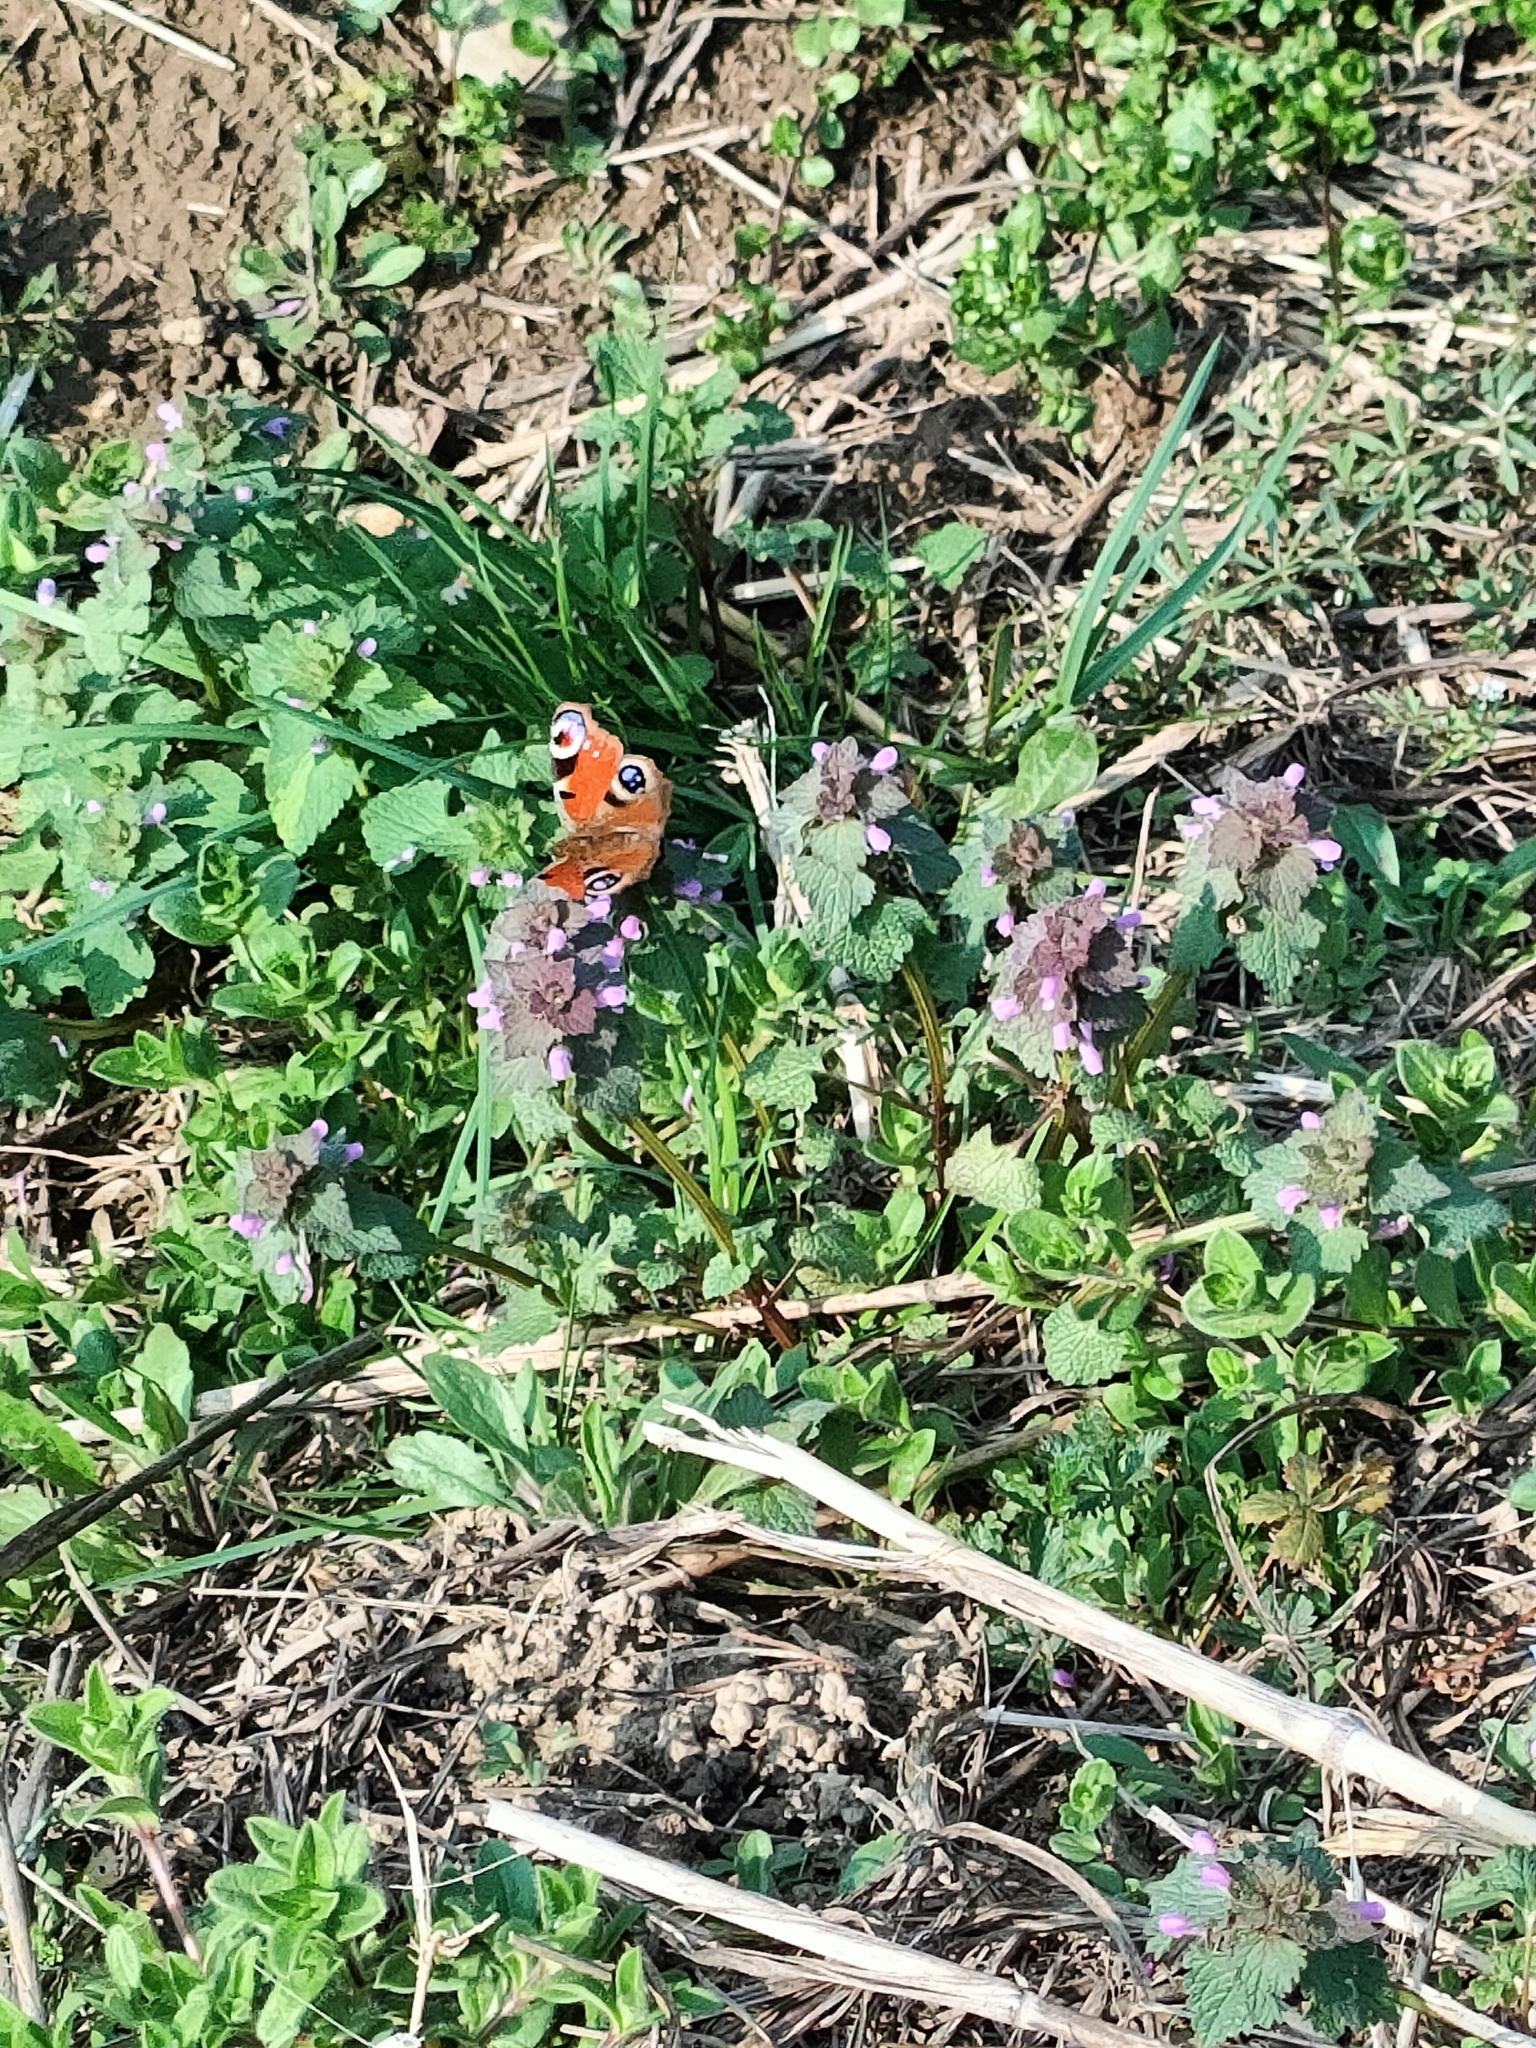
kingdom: Animalia
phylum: Arthropoda
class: Insecta
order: Lepidoptera
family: Nymphalidae
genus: Aglais
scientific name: Aglais io
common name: Peacock
